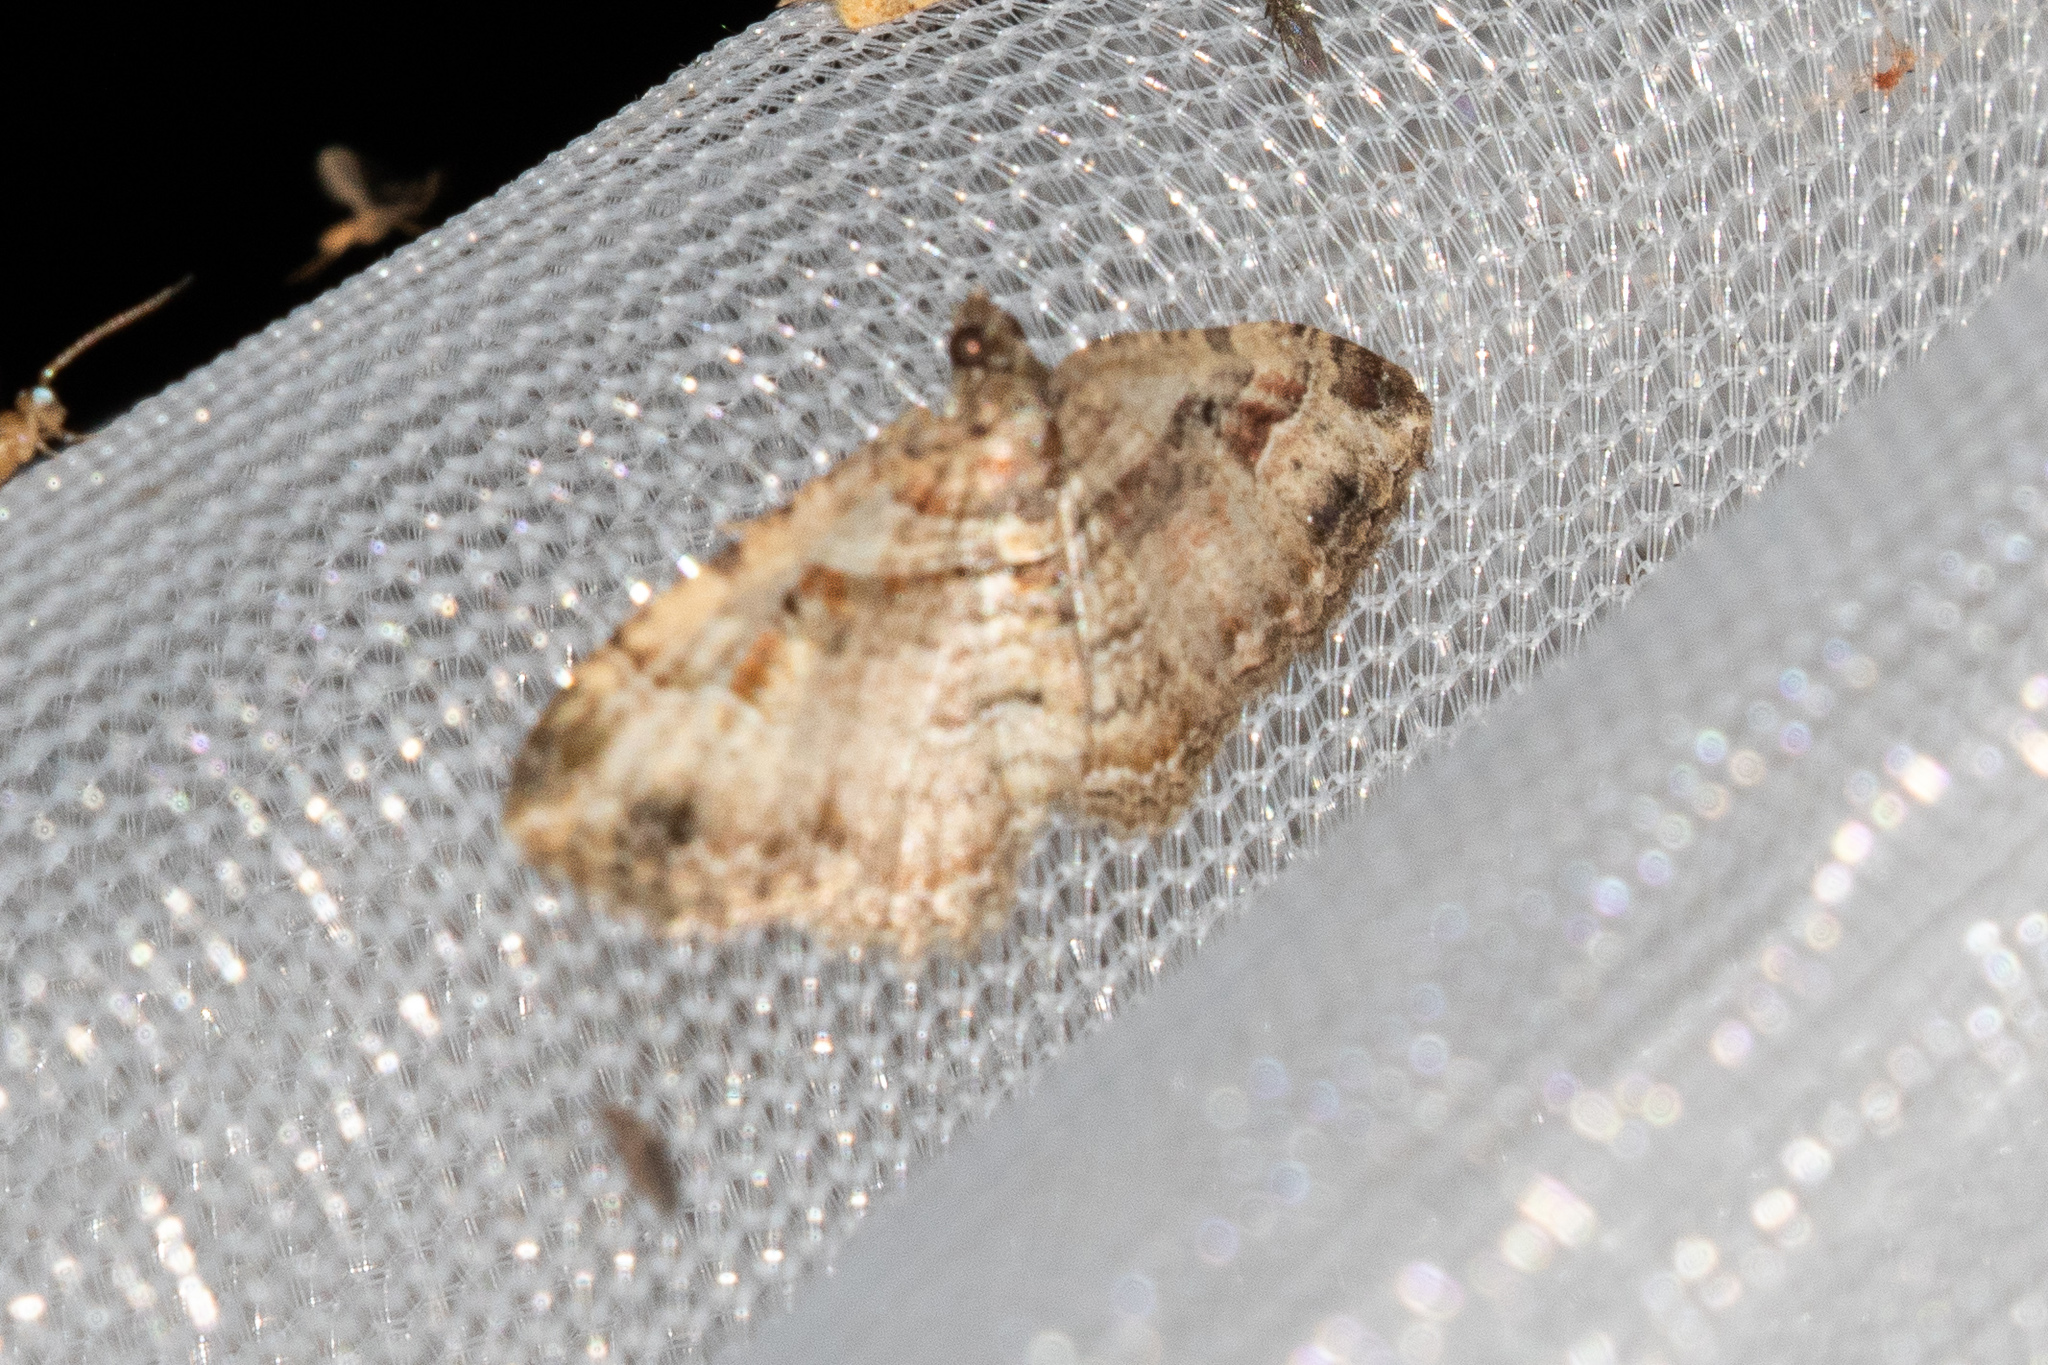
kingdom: Animalia
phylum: Arthropoda
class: Insecta
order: Lepidoptera
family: Geometridae
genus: Costaconvexa
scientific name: Costaconvexa centrostrigaria
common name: Bent-line carpet
